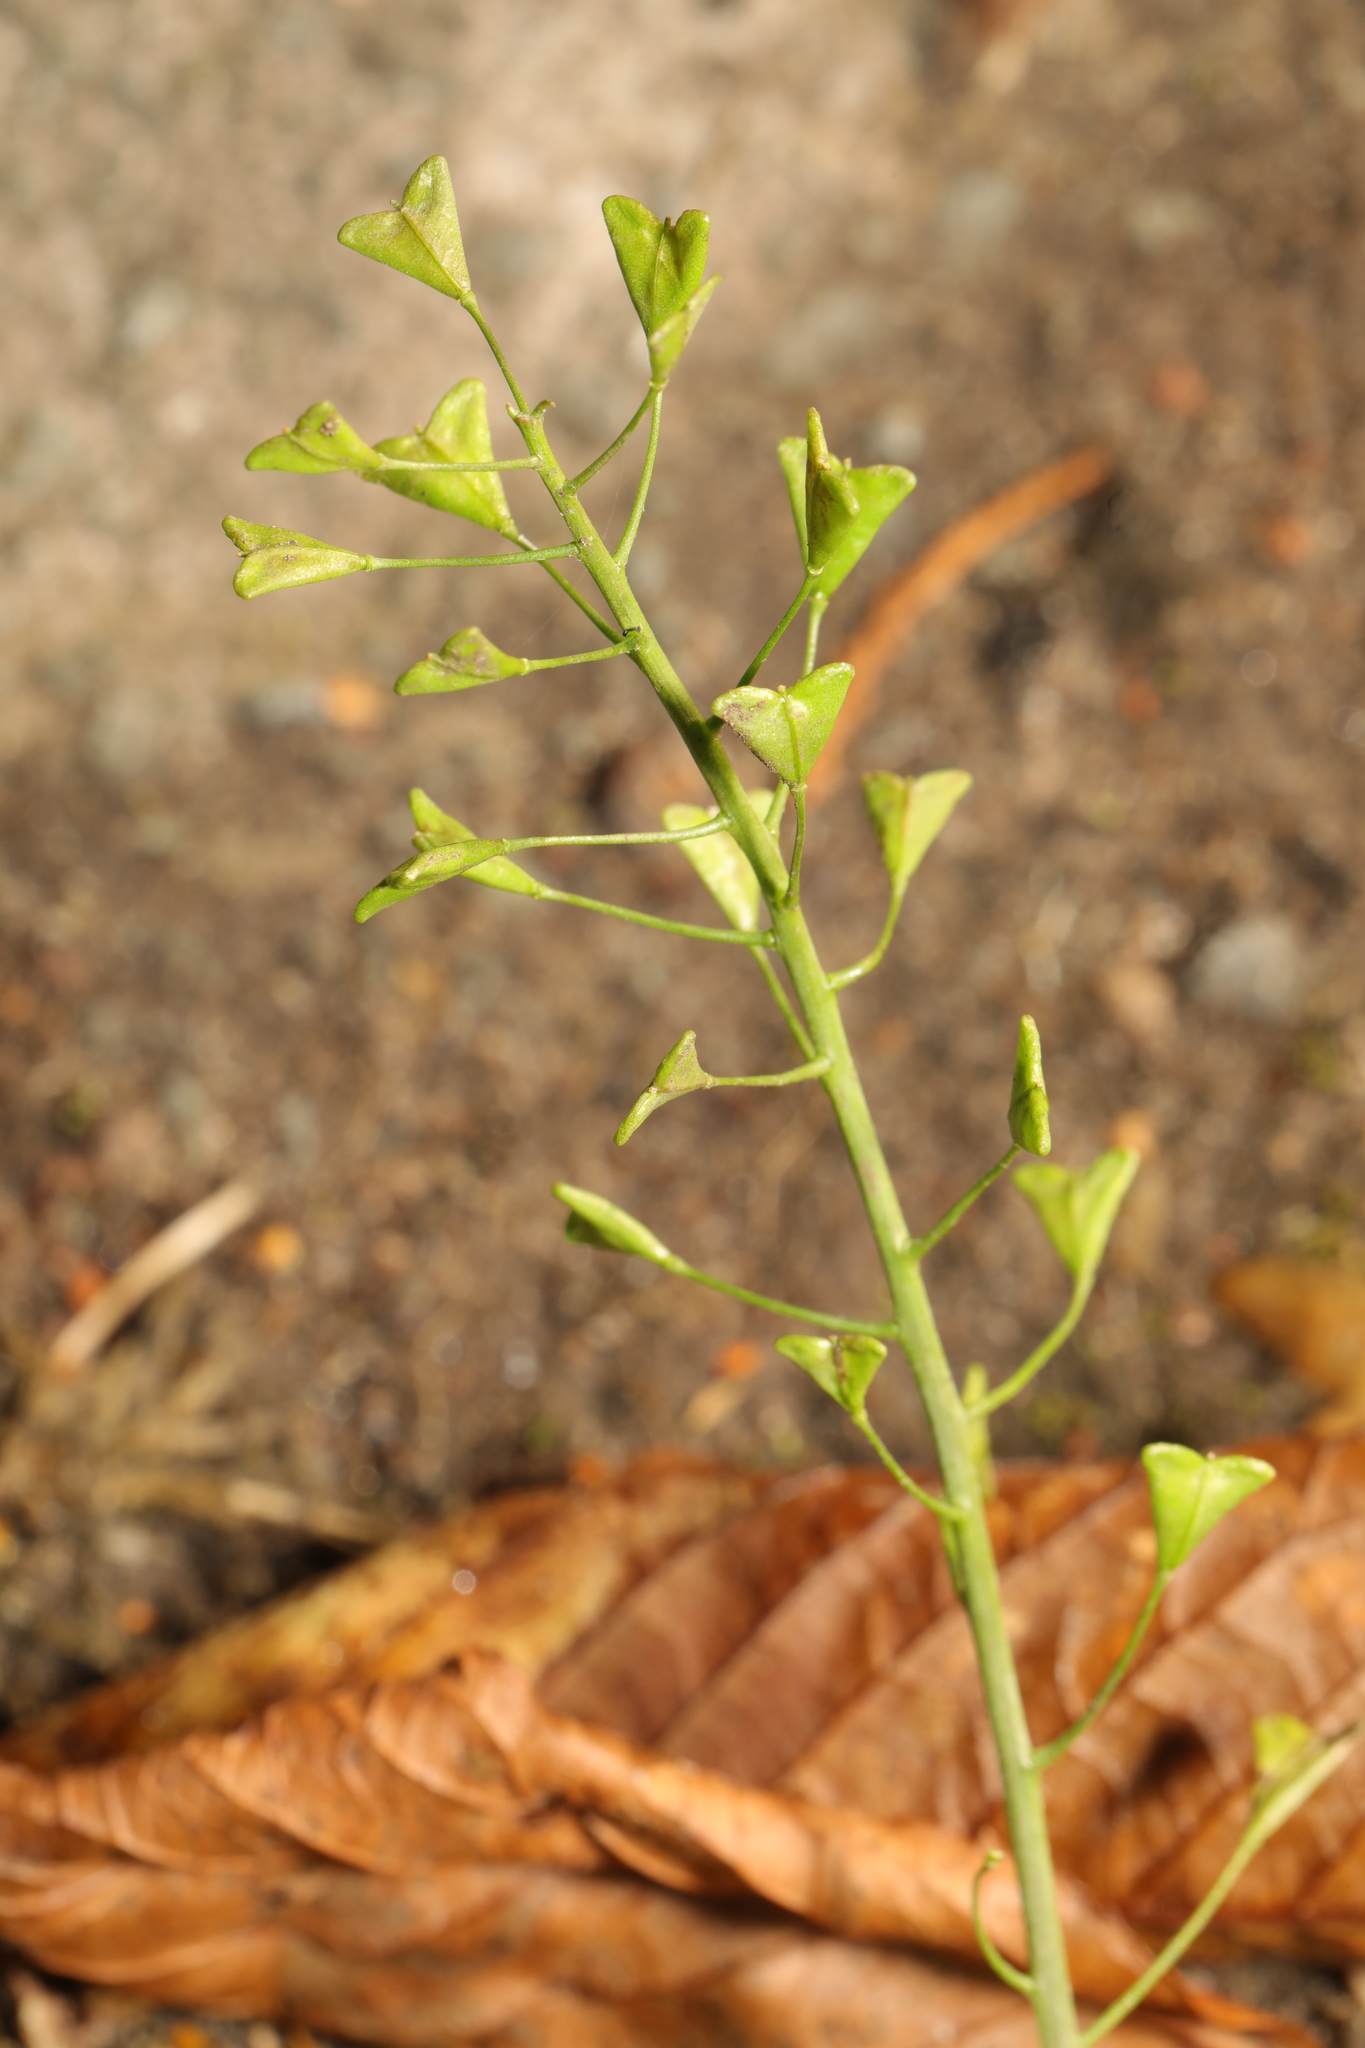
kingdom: Plantae
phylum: Tracheophyta
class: Magnoliopsida
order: Brassicales
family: Brassicaceae
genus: Capsella
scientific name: Capsella bursa-pastoris
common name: Shepherd's purse
